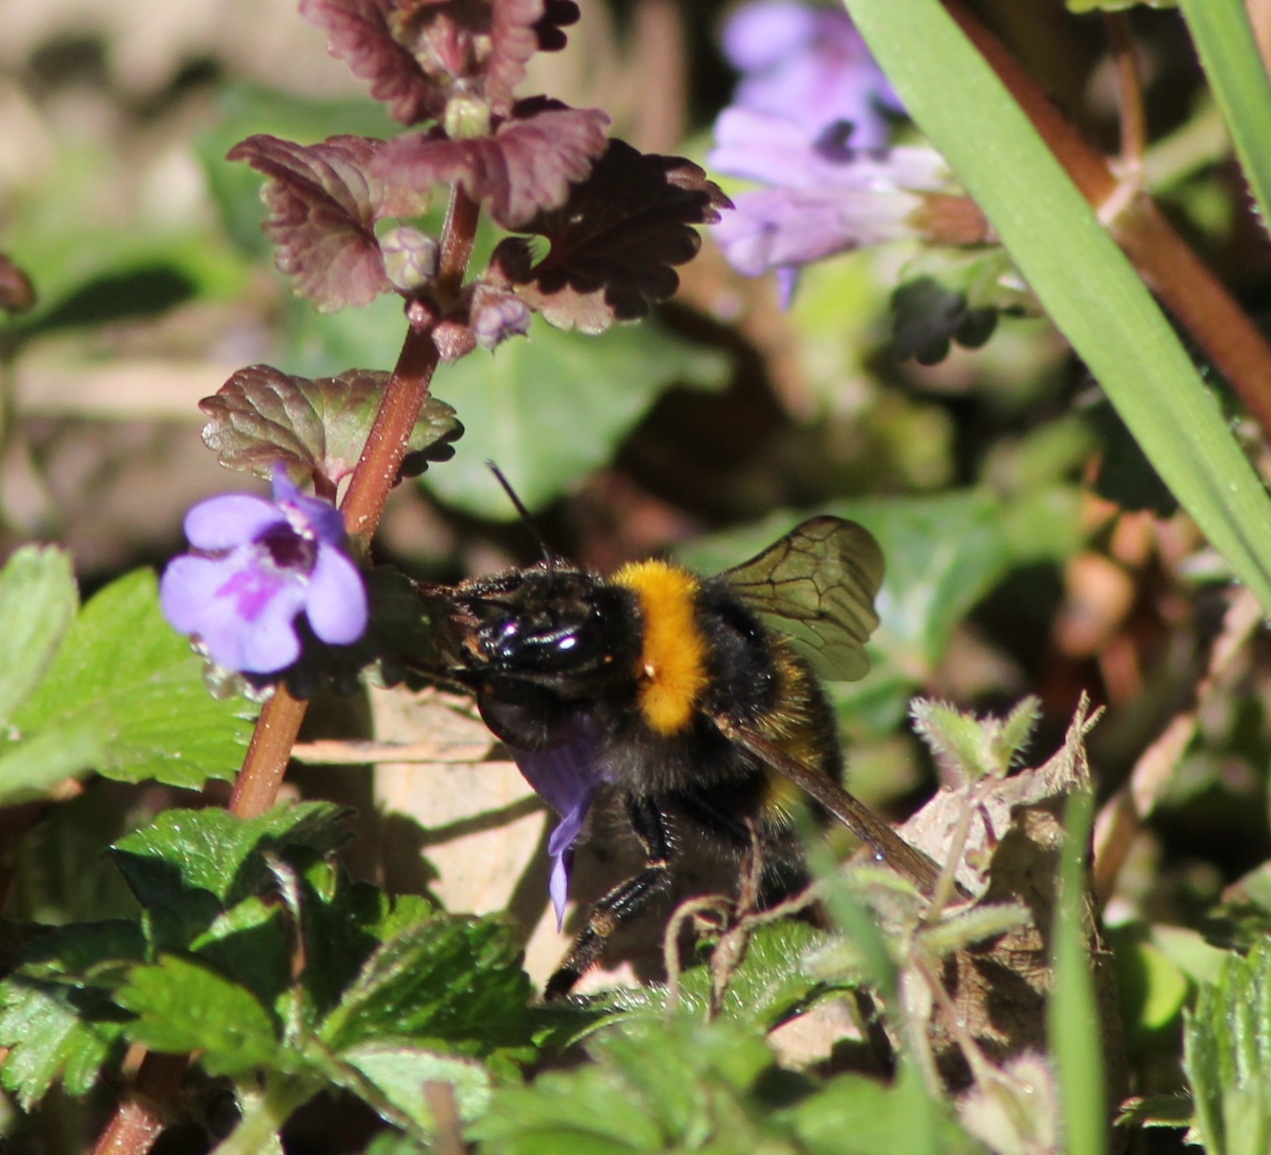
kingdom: Animalia
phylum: Arthropoda
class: Insecta
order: Hymenoptera
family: Apidae
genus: Bombus
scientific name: Bombus hortorum
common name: Garden bumblebee
